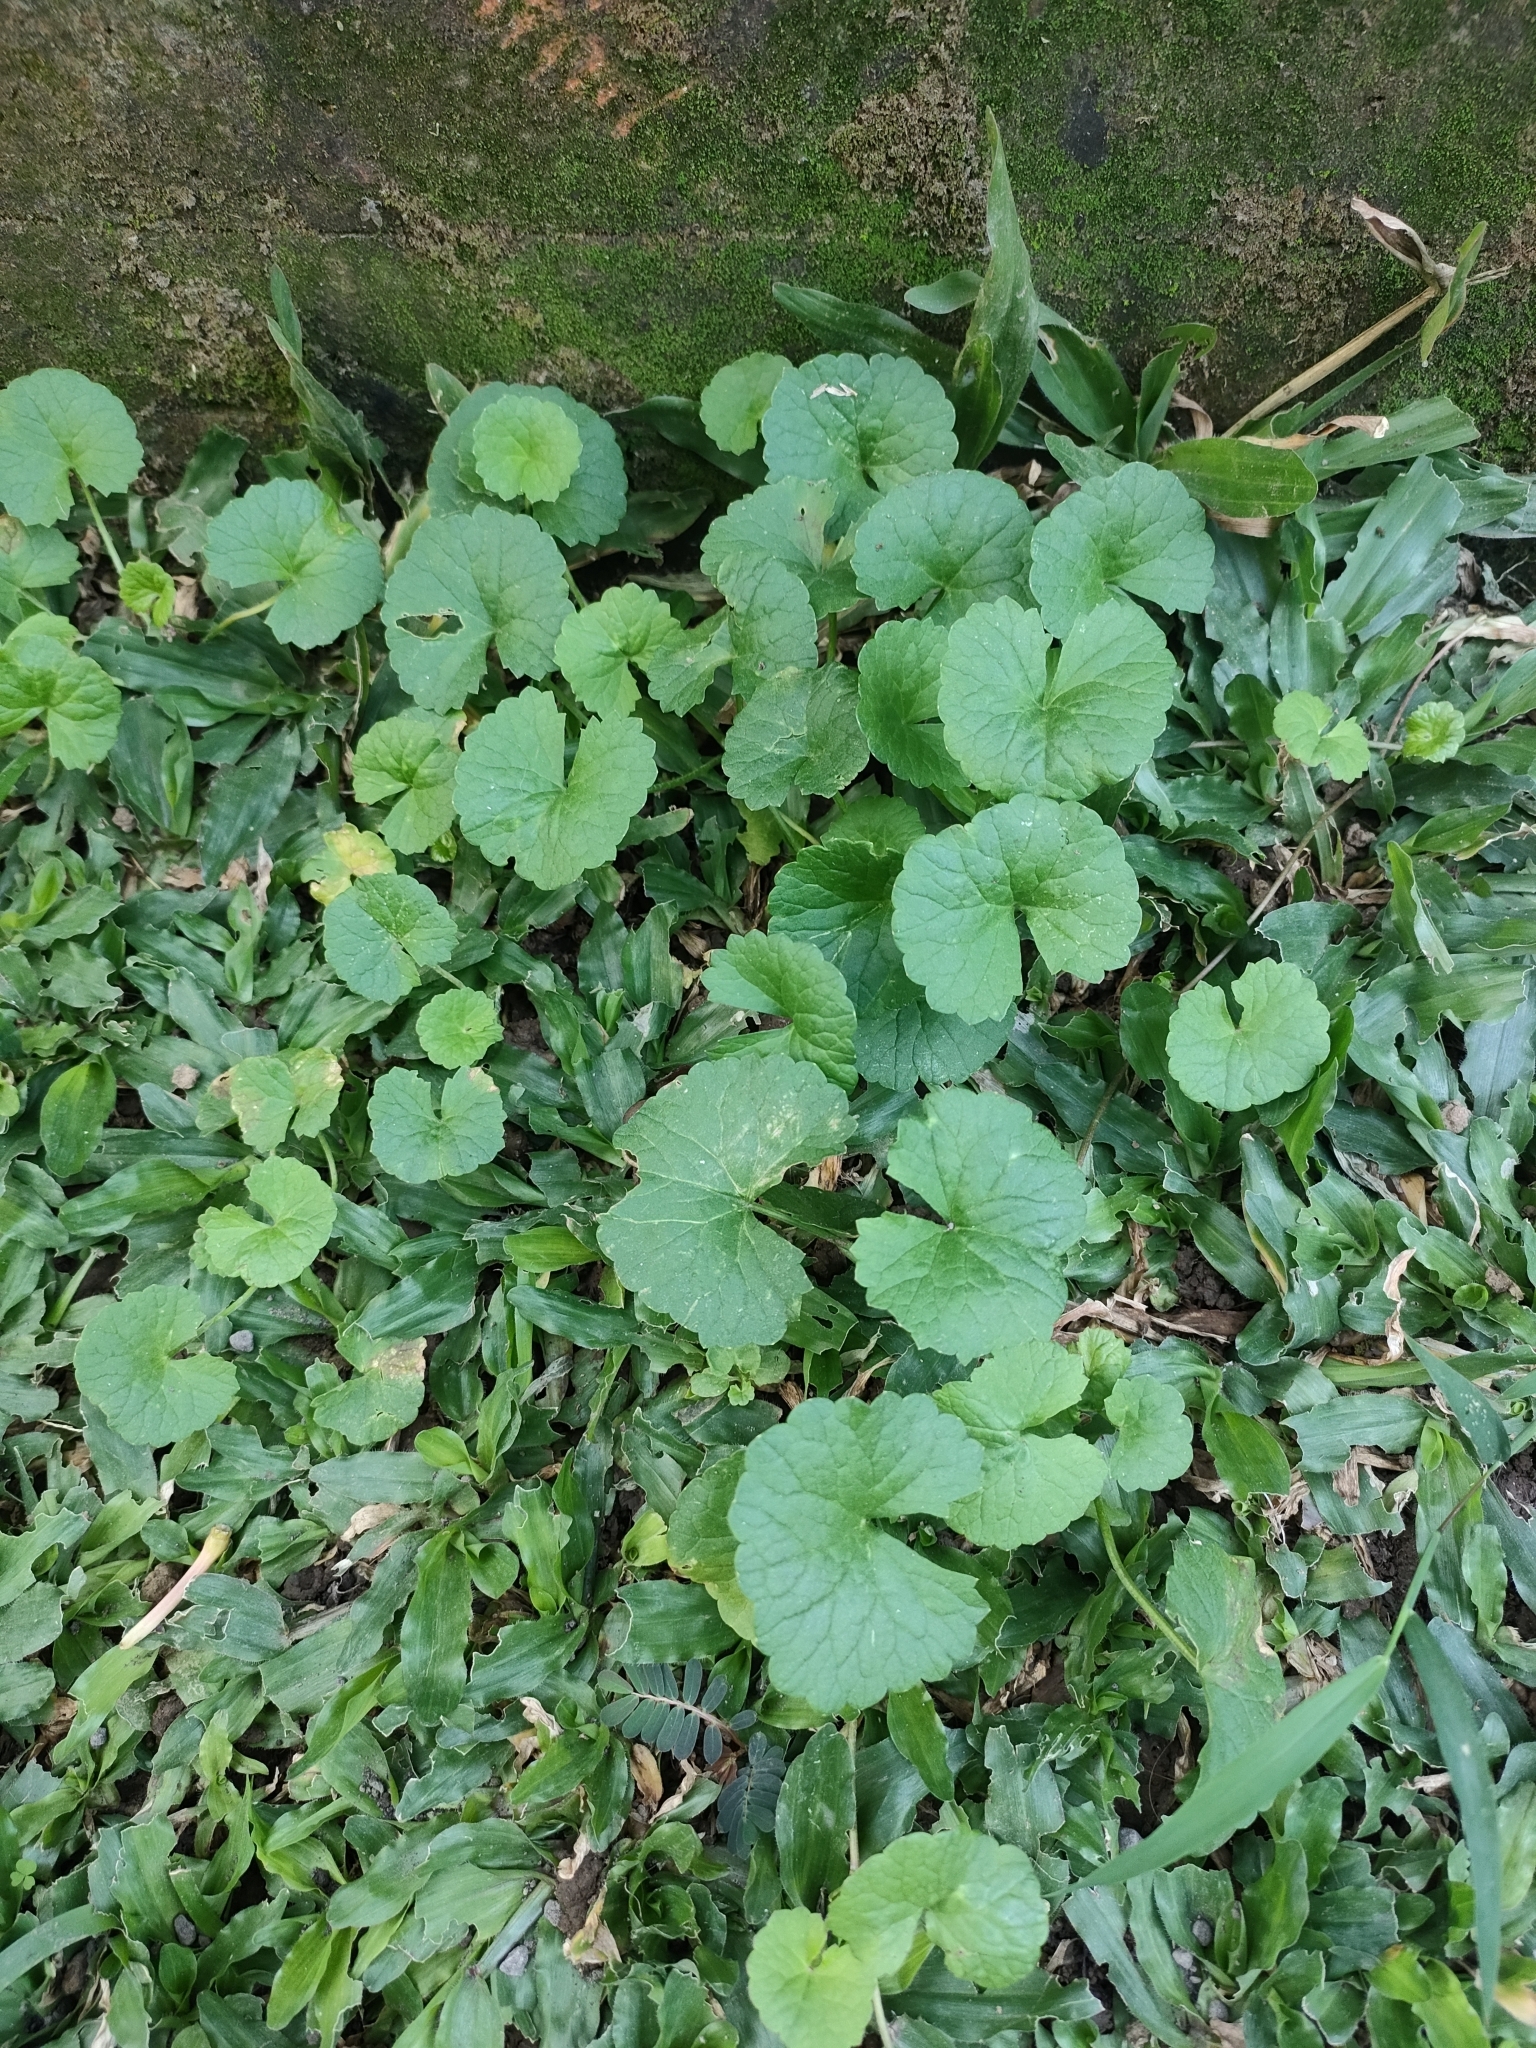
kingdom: Plantae
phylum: Tracheophyta
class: Magnoliopsida
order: Apiales
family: Apiaceae
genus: Centella
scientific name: Centella asiatica
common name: Spadeleaf
